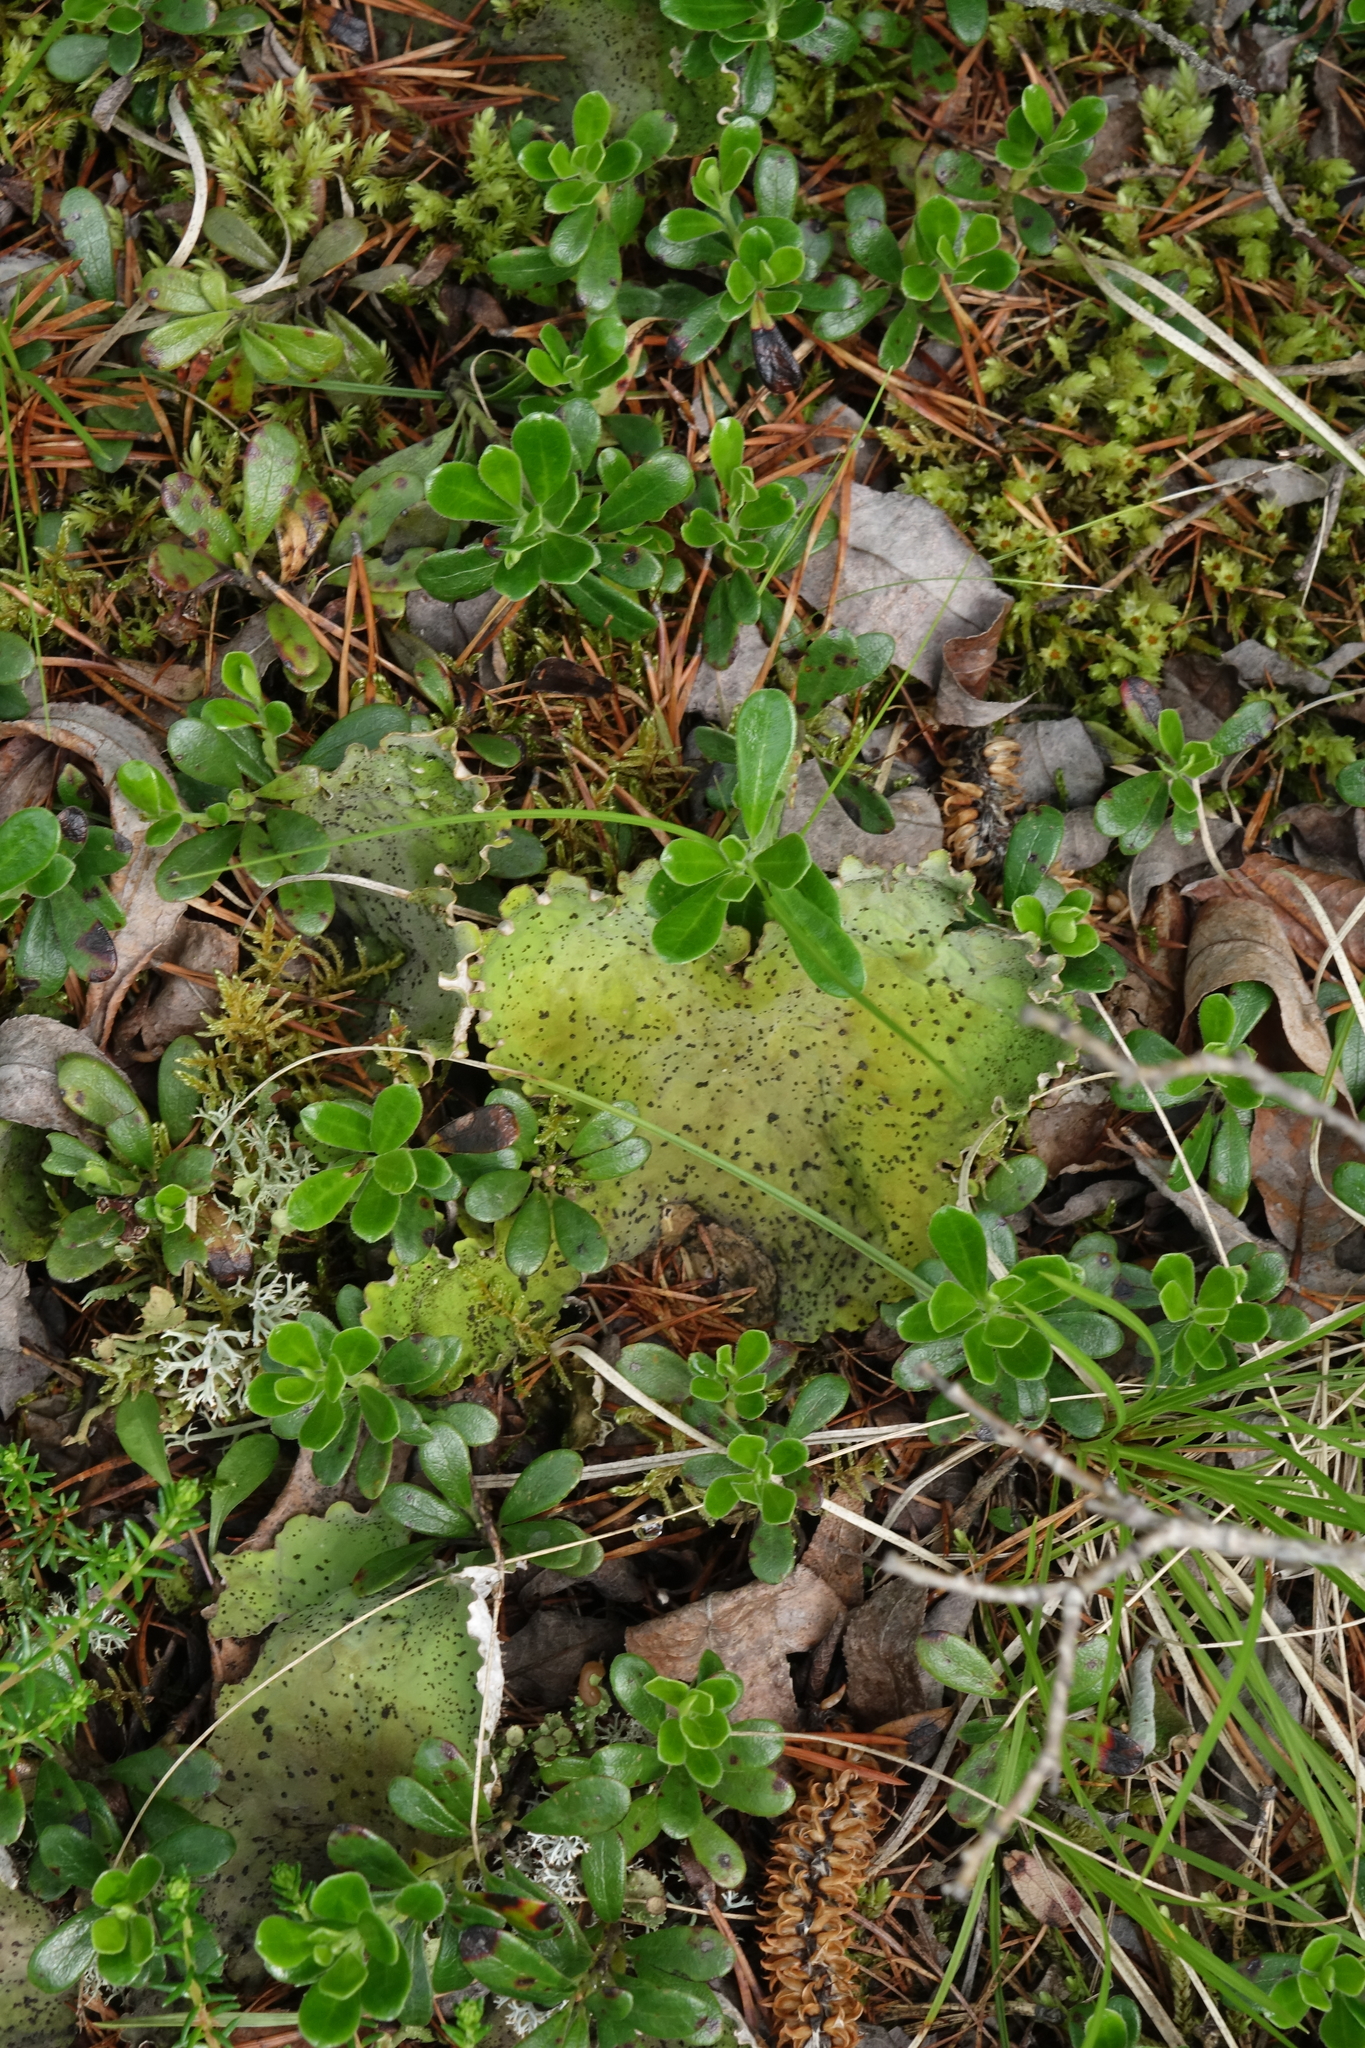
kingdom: Plantae
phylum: Tracheophyta
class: Magnoliopsida
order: Ericales
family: Ericaceae
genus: Arctostaphylos
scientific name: Arctostaphylos uva-ursi
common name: Bearberry
